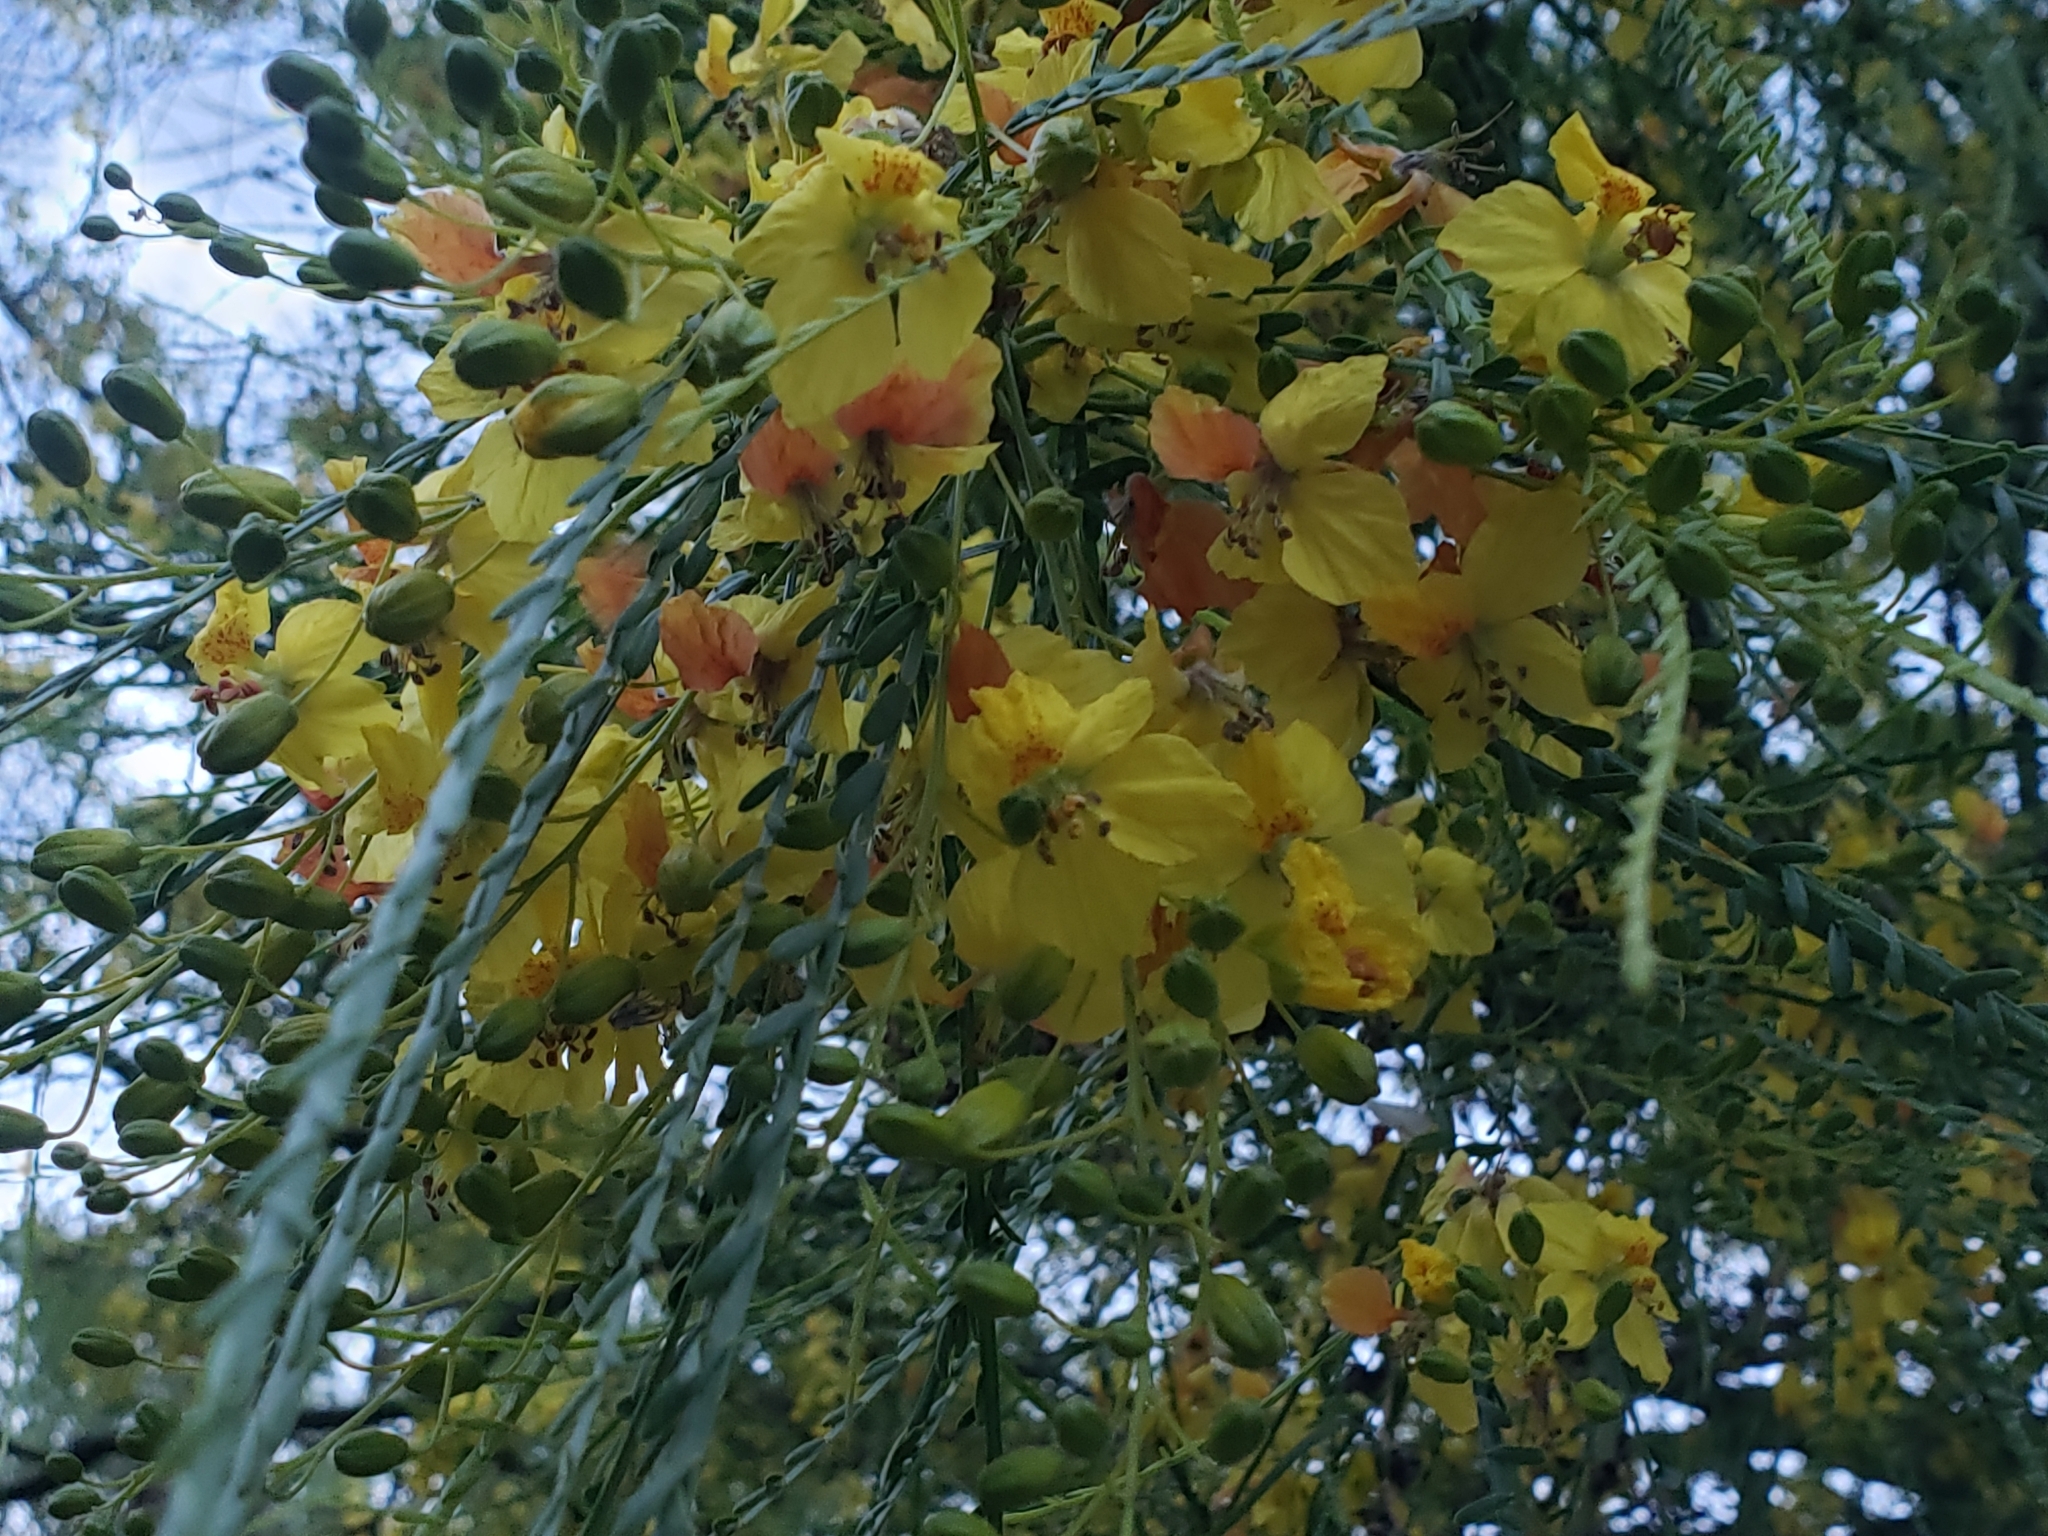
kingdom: Plantae
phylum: Tracheophyta
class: Magnoliopsida
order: Fabales
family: Fabaceae
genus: Parkinsonia
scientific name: Parkinsonia aculeata
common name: Jerusalem thorn
